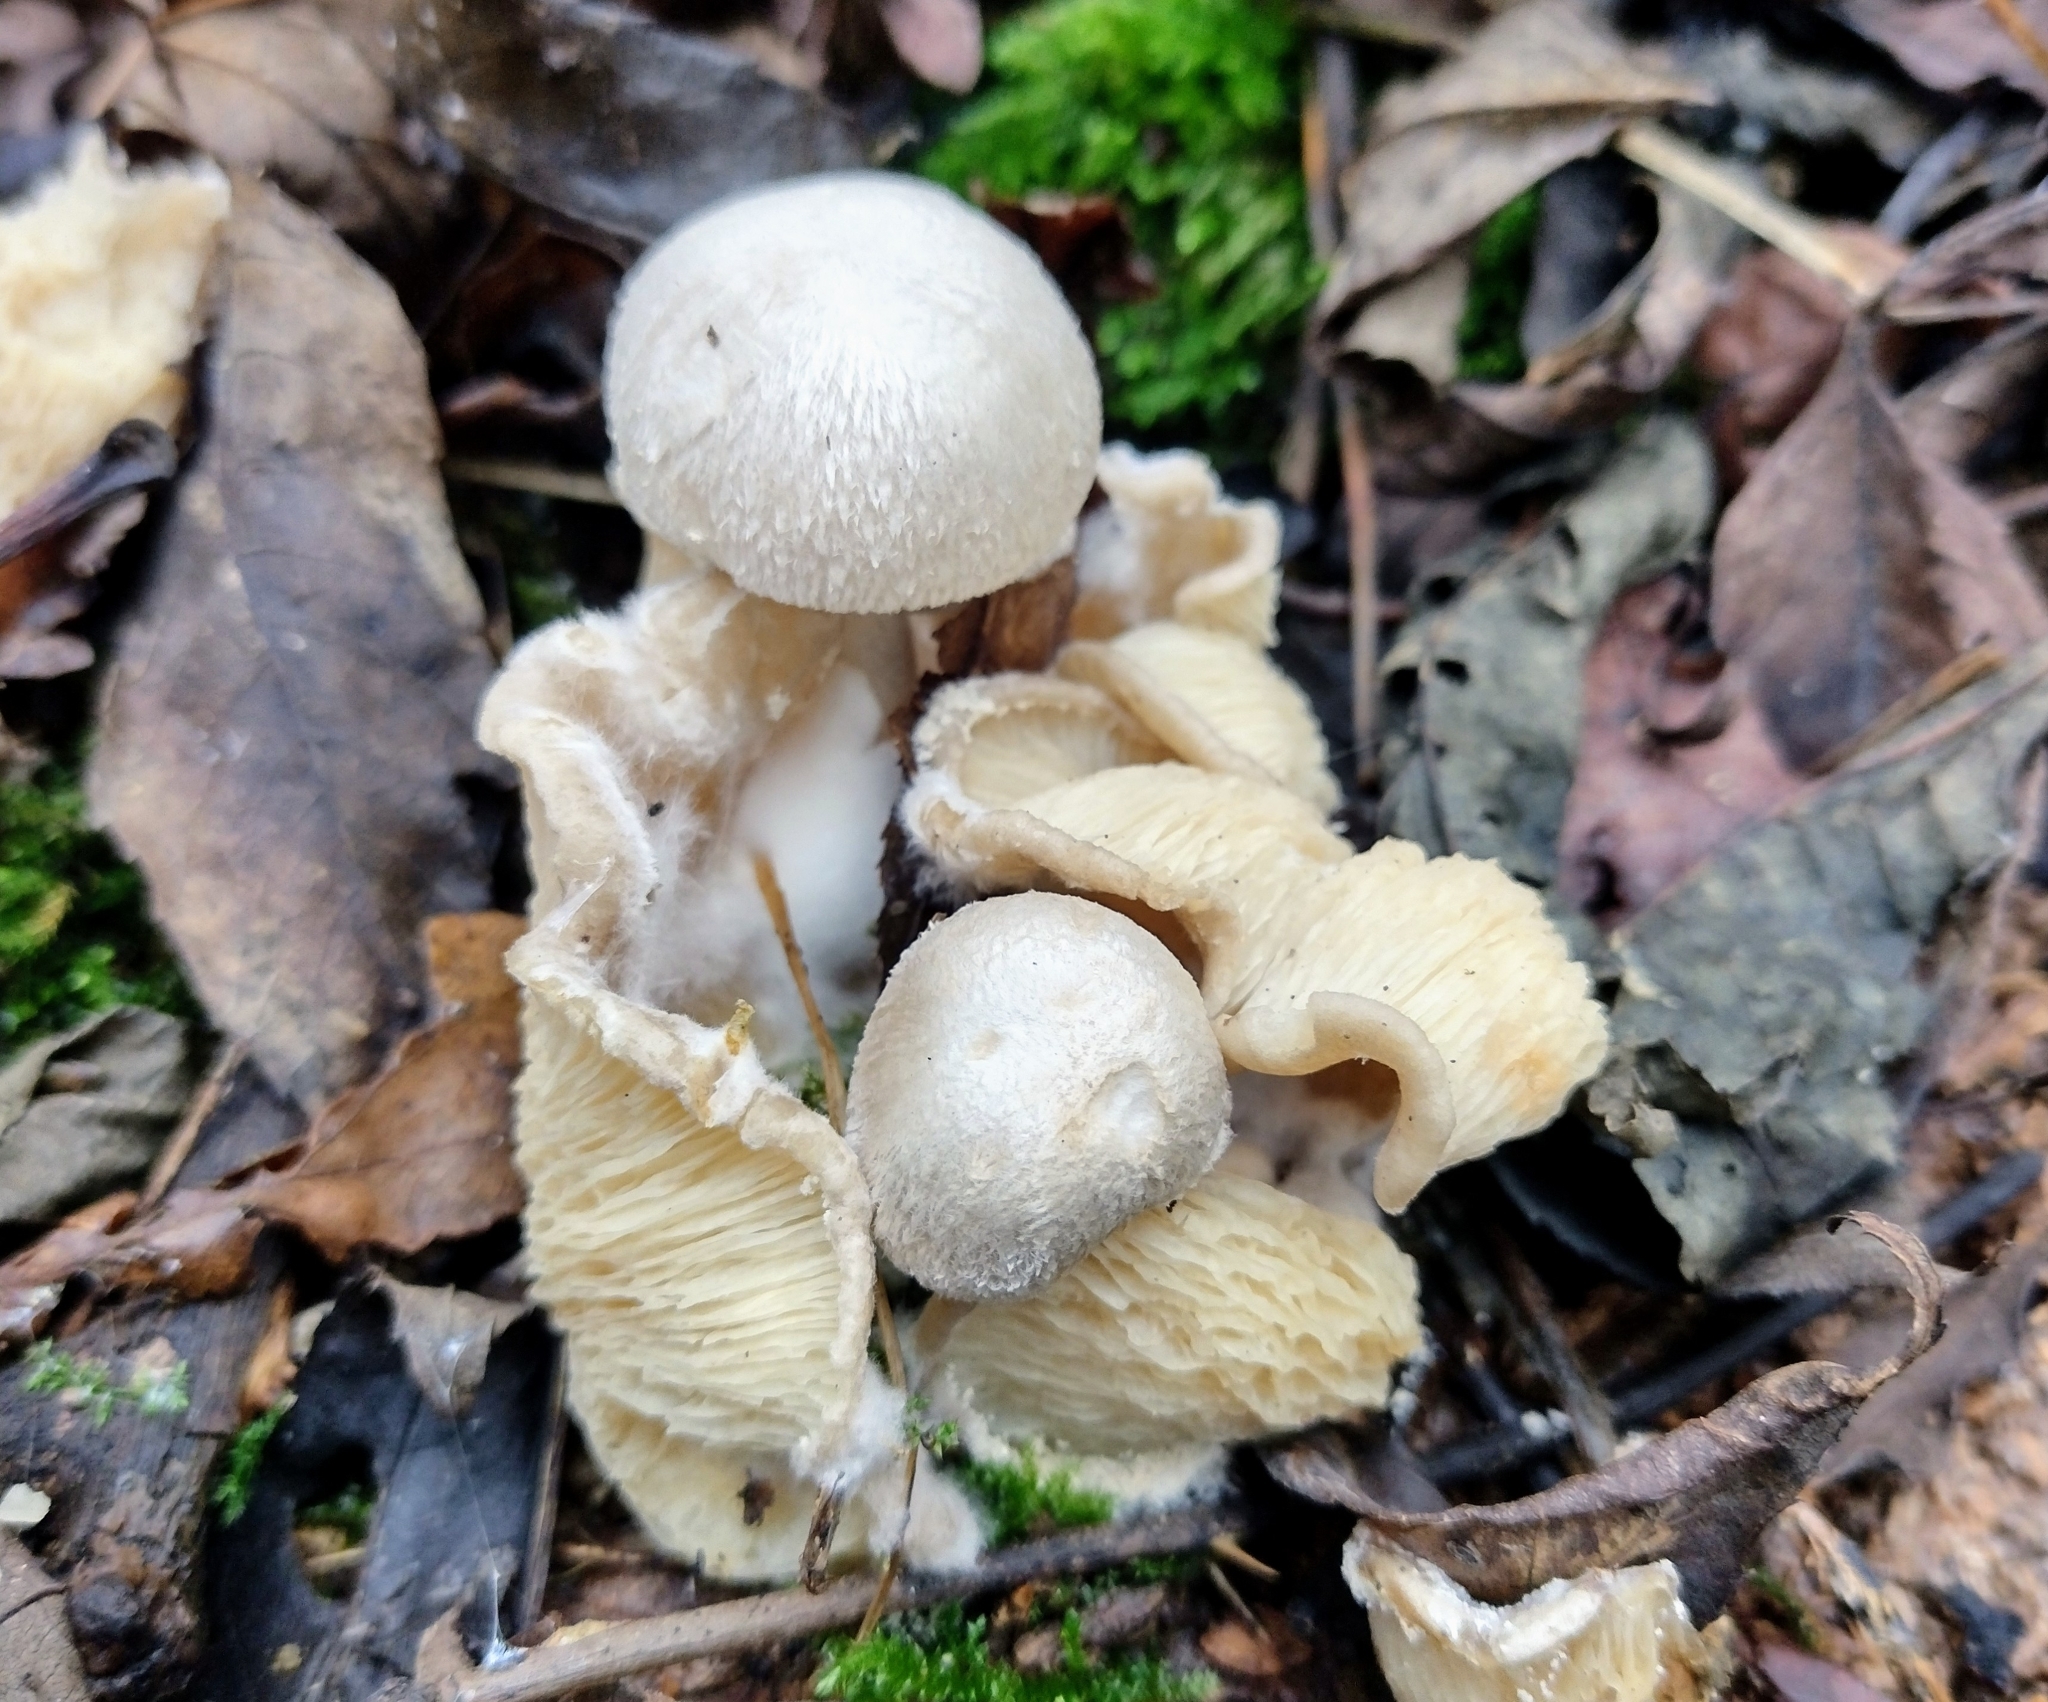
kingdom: Fungi
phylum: Basidiomycota
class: Agaricomycetes
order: Agaricales
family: Pluteaceae
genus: Volvariella
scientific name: Volvariella surrecta
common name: Piggyback rosegill
